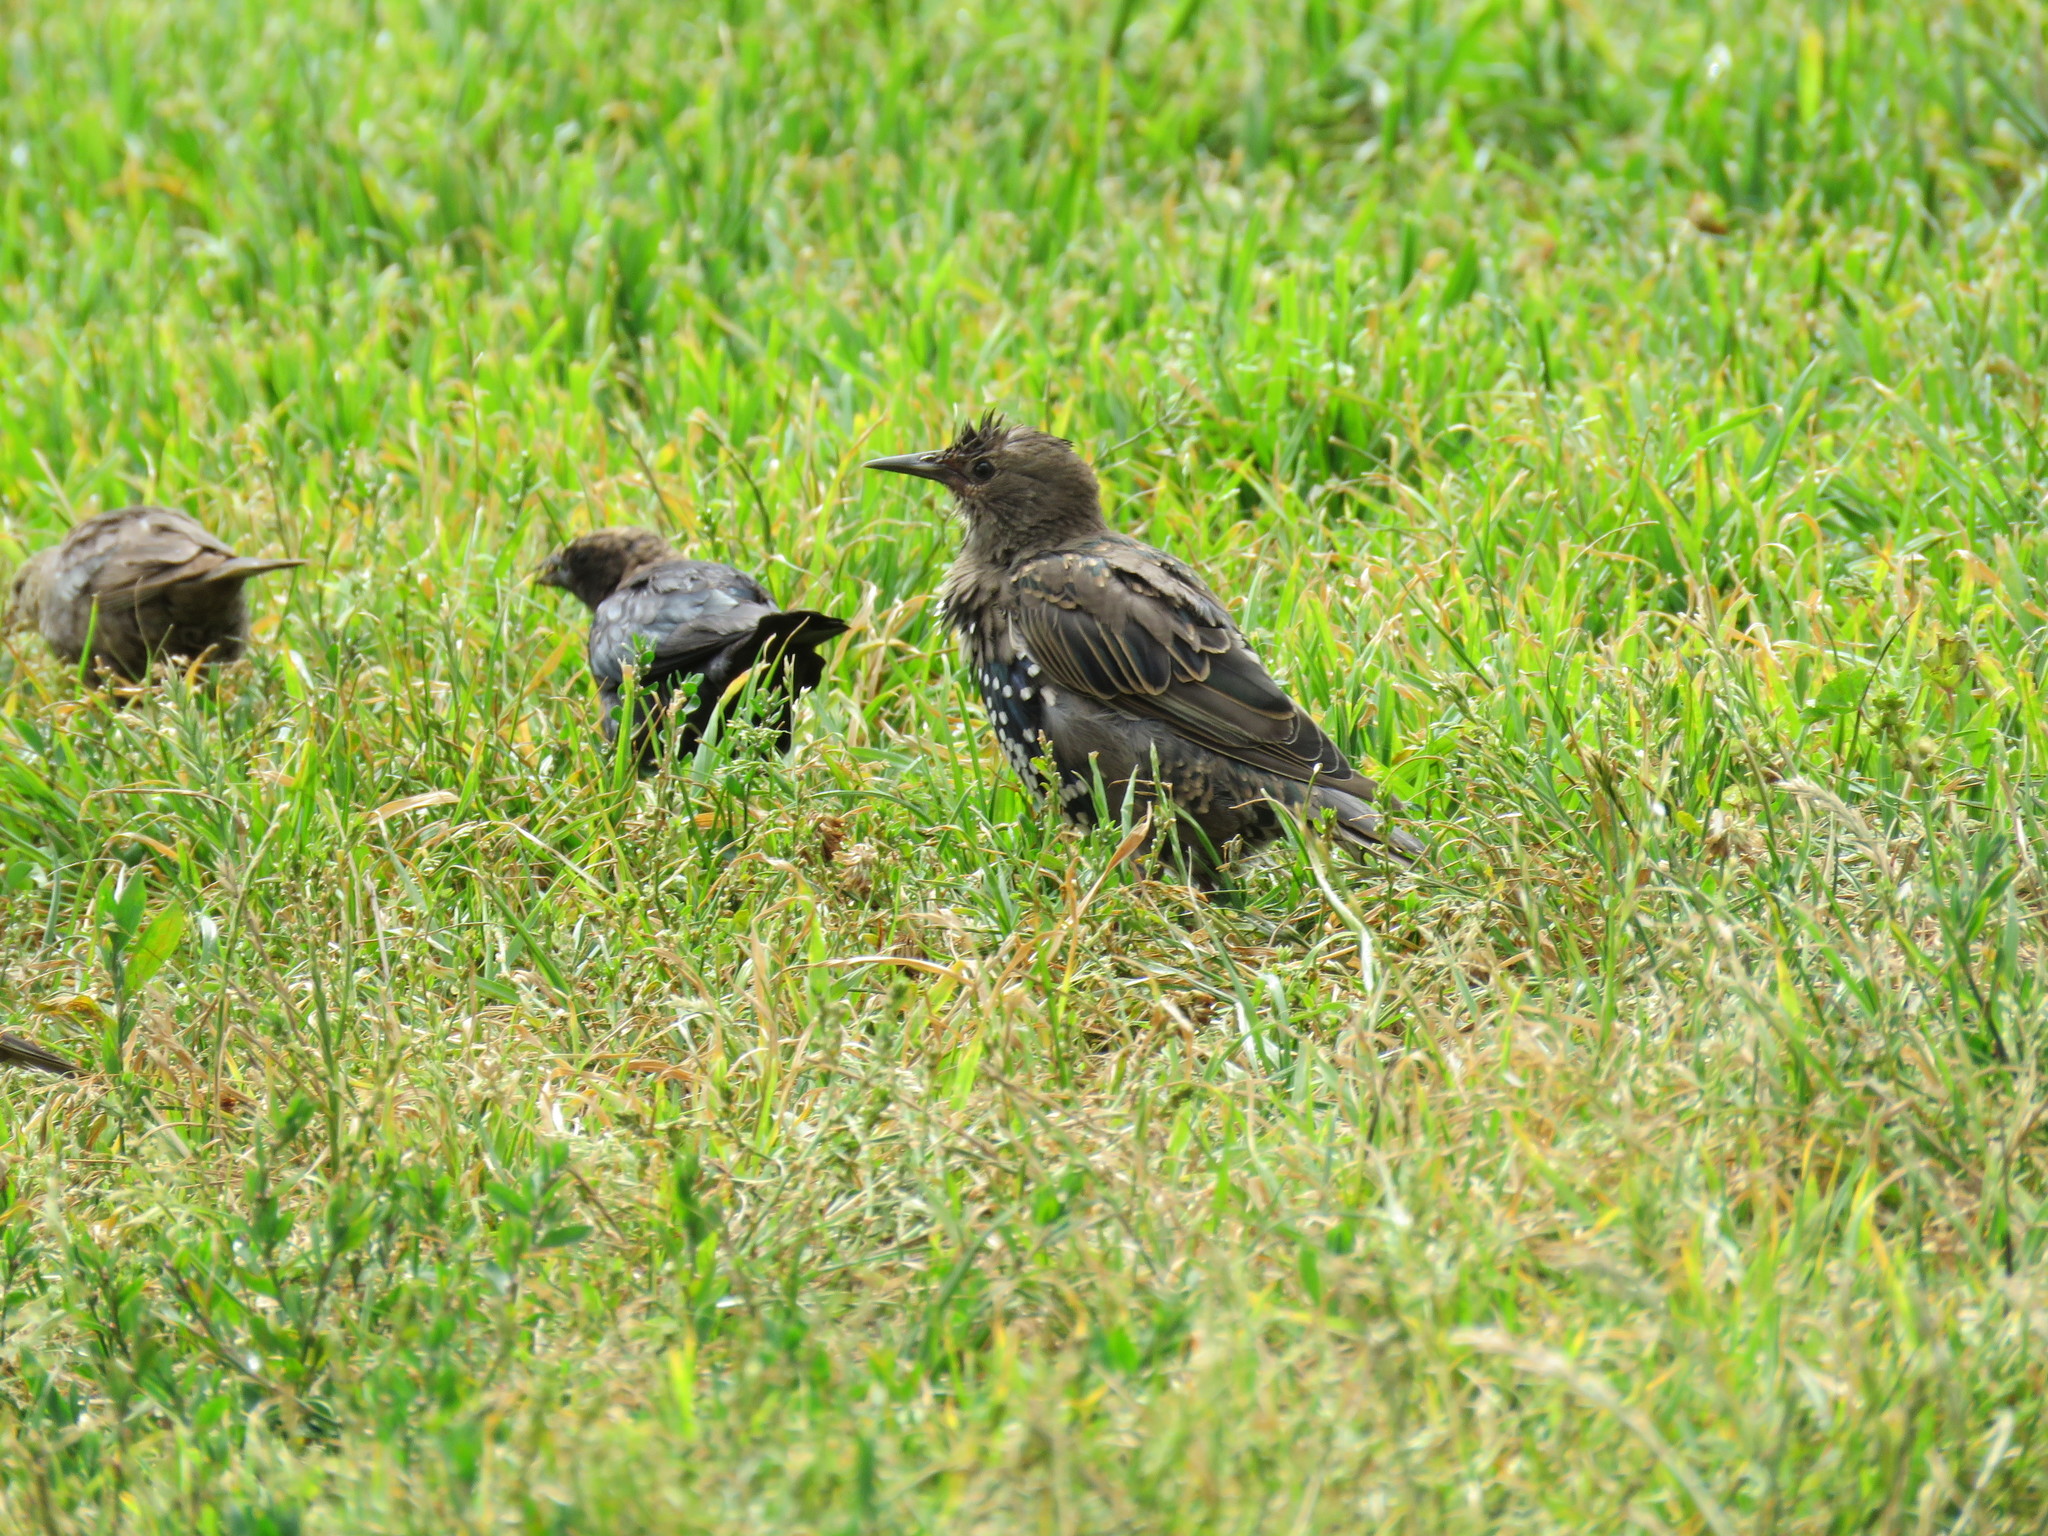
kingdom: Animalia
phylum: Chordata
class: Aves
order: Passeriformes
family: Sturnidae
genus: Sturnus
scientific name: Sturnus vulgaris
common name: Common starling
